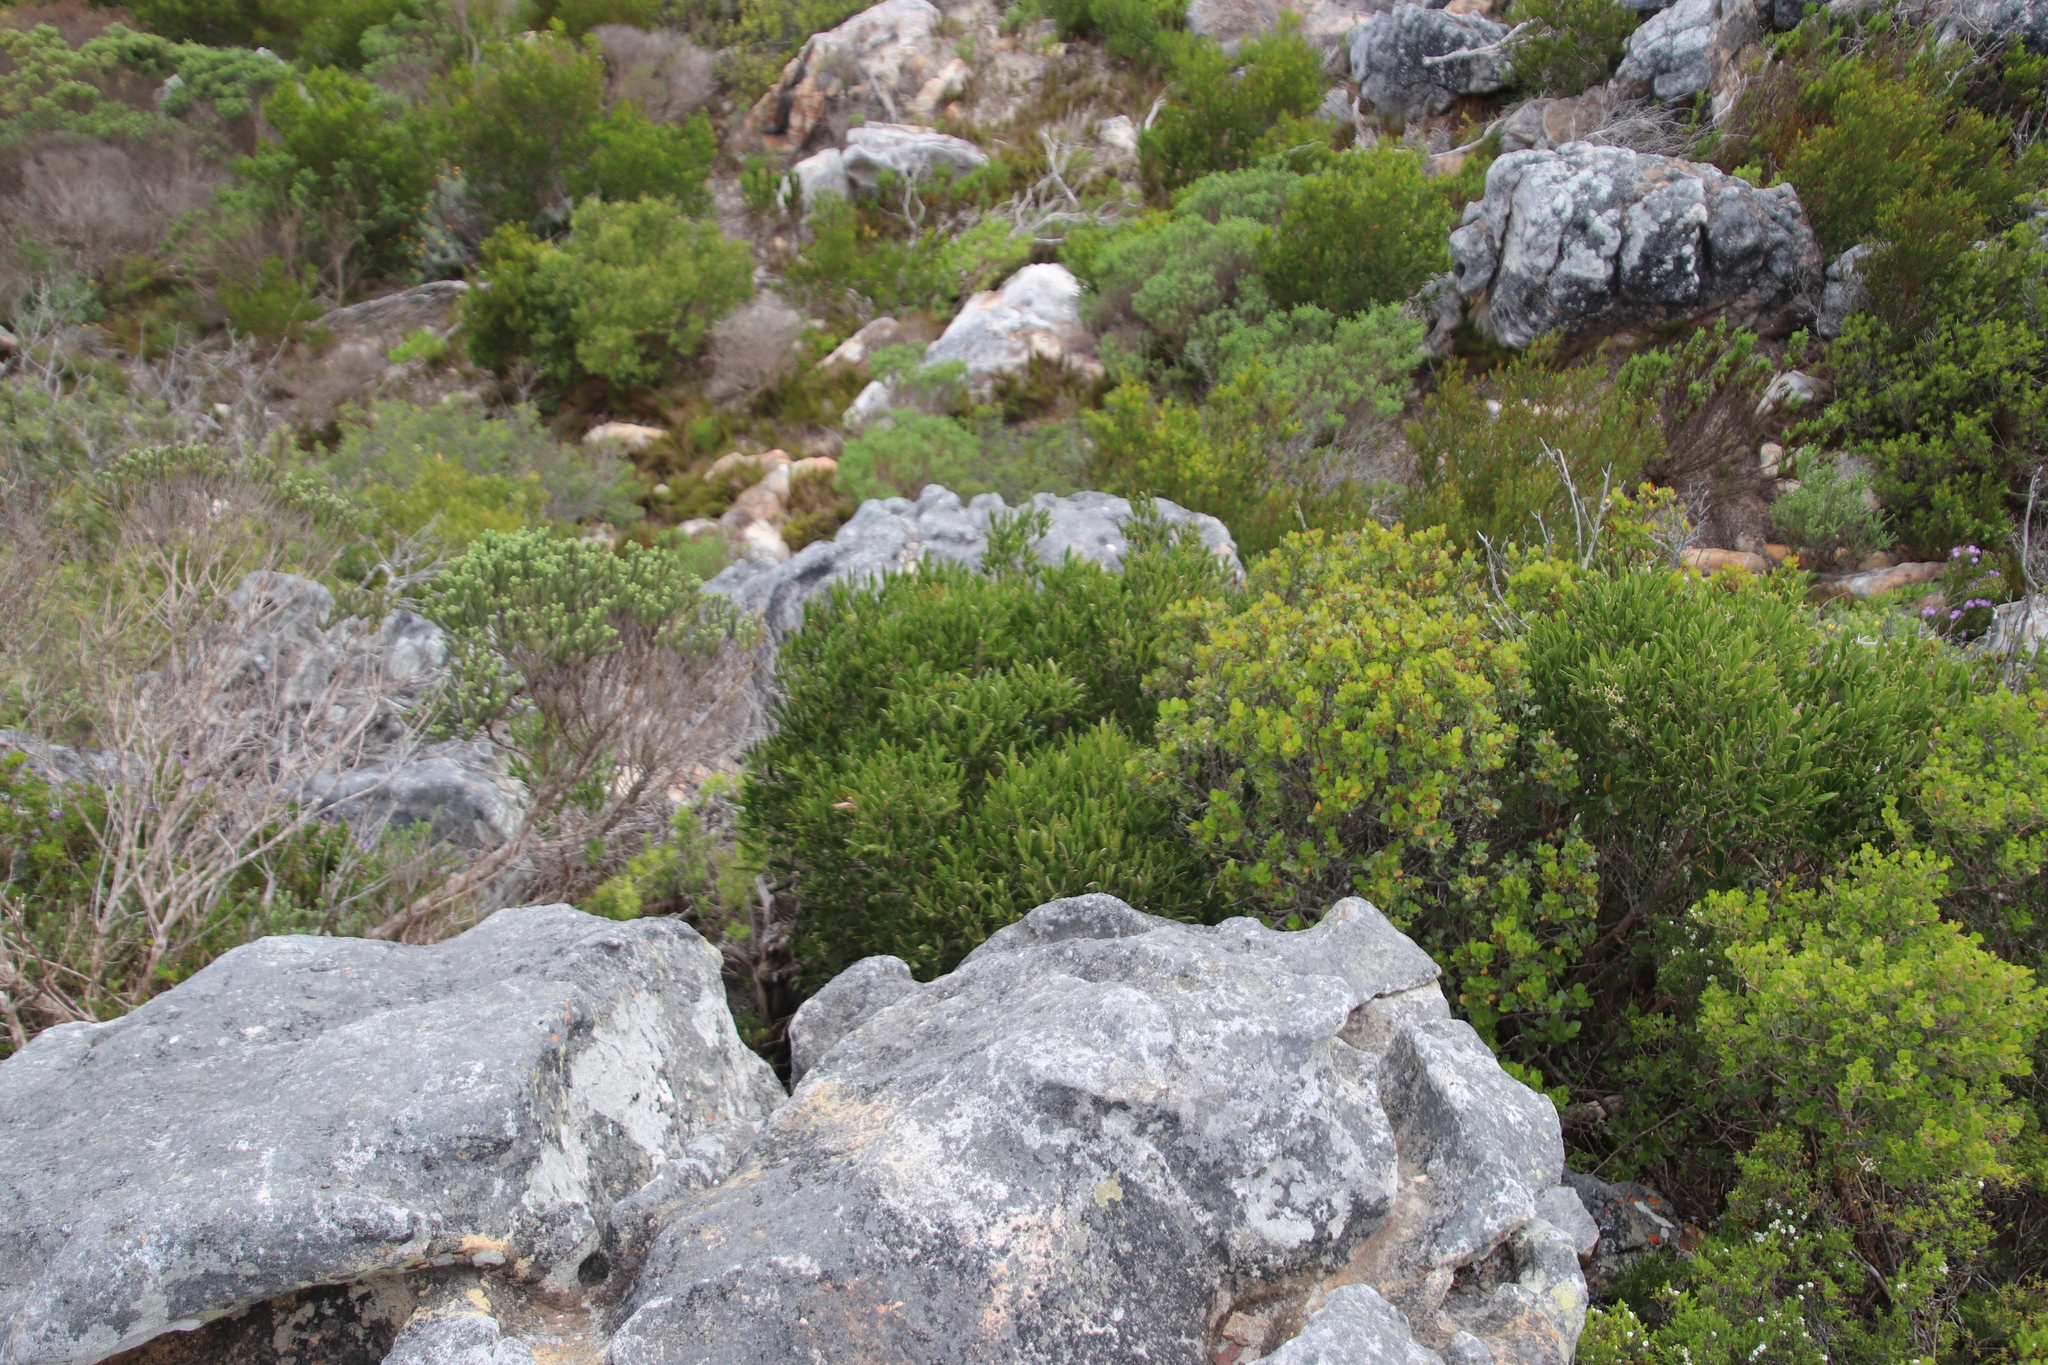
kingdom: Plantae
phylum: Tracheophyta
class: Magnoliopsida
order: Lamiales
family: Oleaceae
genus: Olea
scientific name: Olea exasperata
